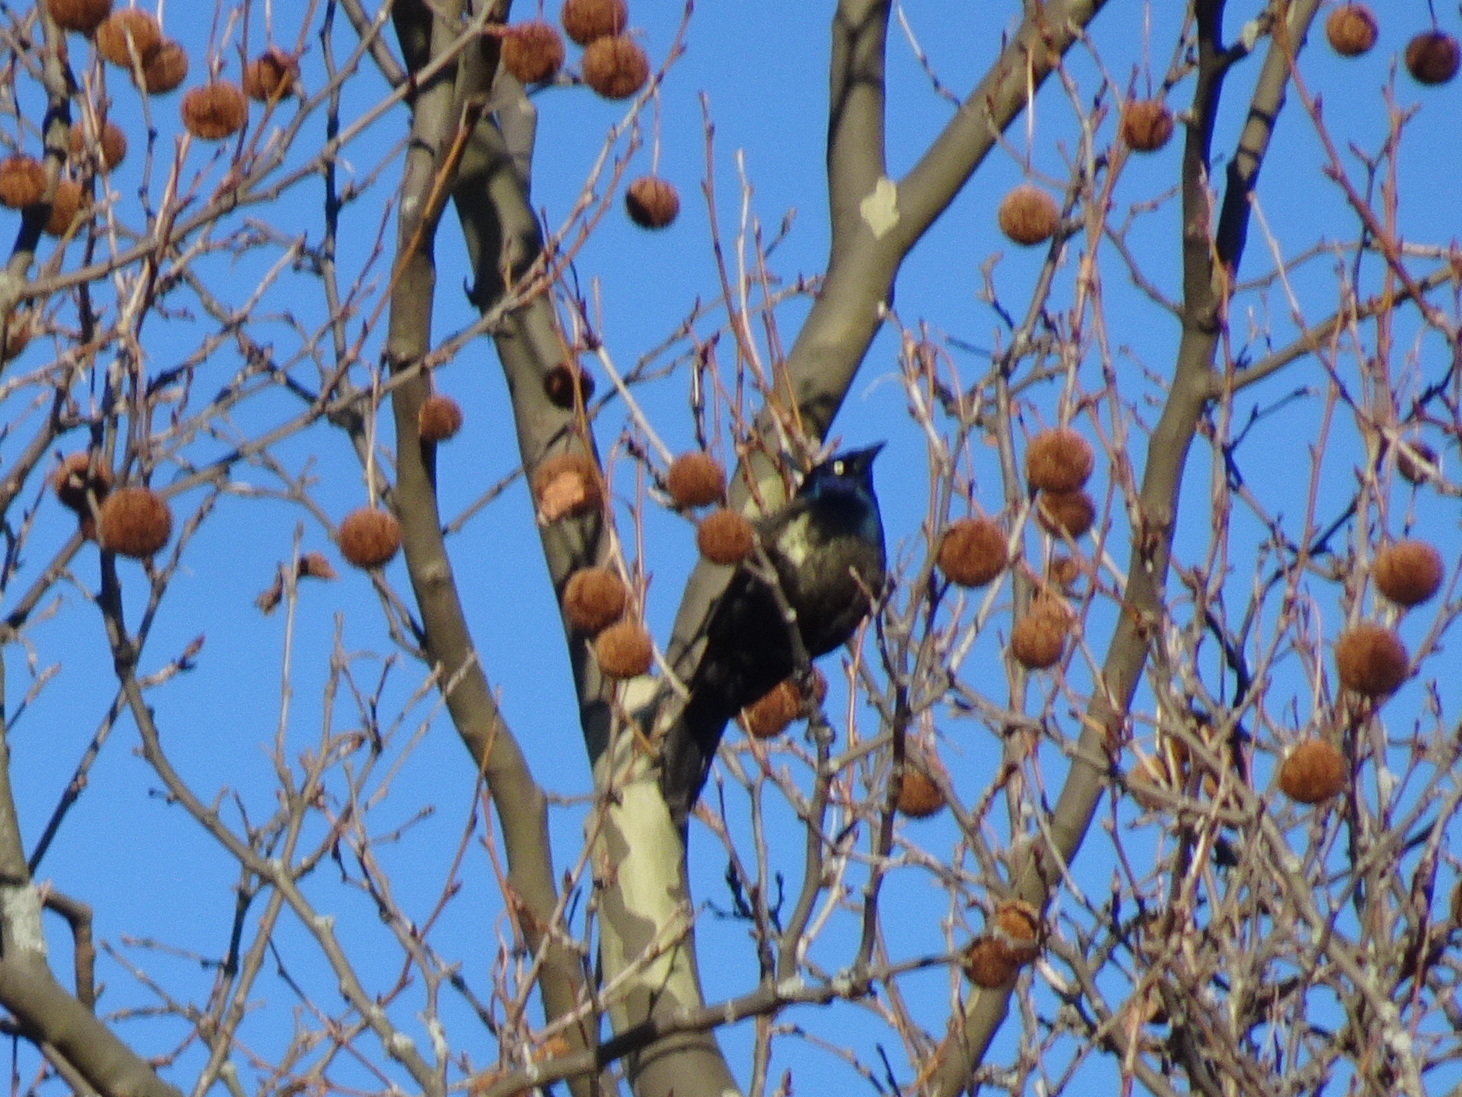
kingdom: Animalia
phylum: Chordata
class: Aves
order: Passeriformes
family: Icteridae
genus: Quiscalus
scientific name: Quiscalus quiscula
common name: Common grackle
